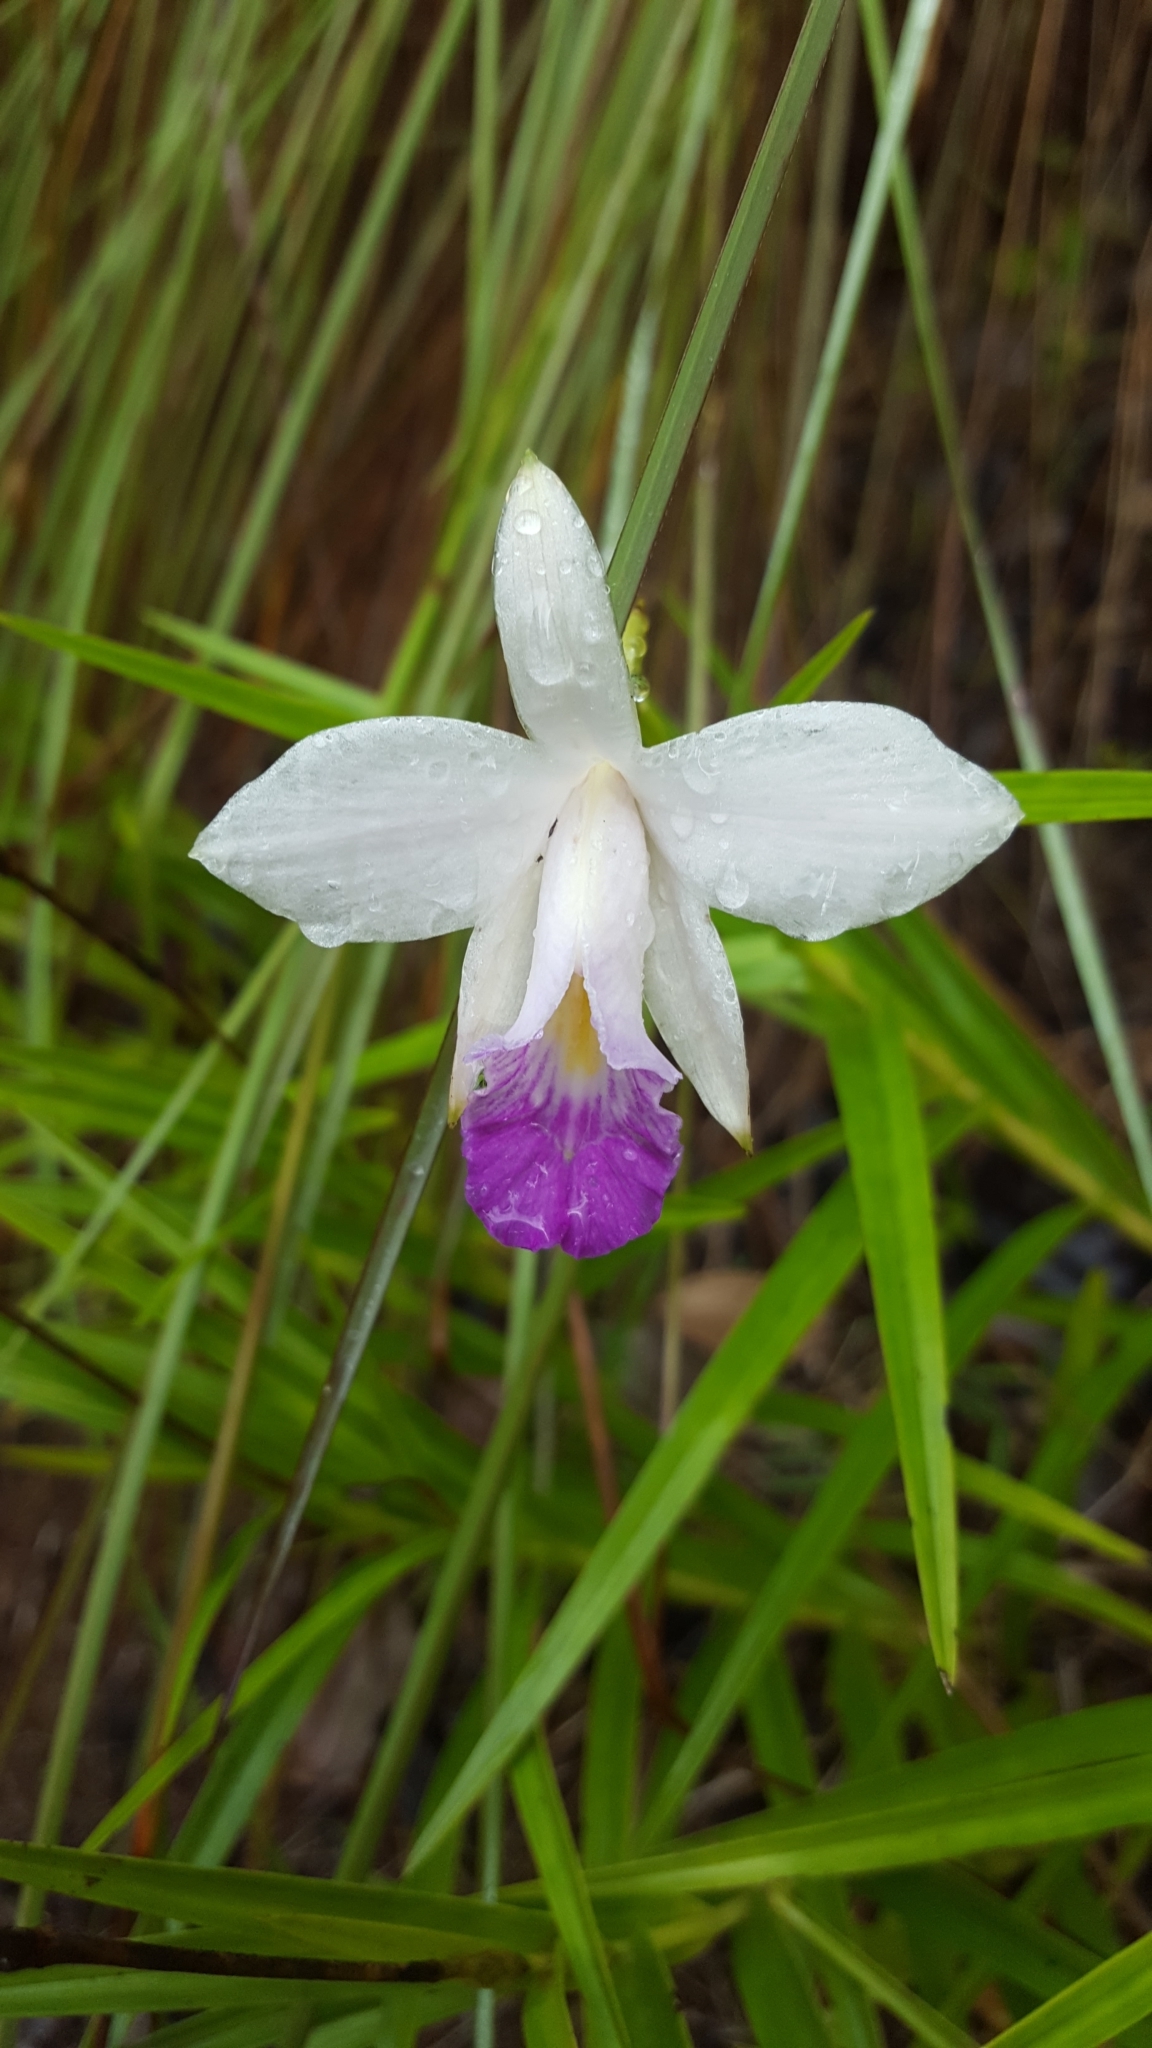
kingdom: Plantae
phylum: Tracheophyta
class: Liliopsida
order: Asparagales
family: Orchidaceae
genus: Arundina
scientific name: Arundina graminifolia
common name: Bamboo orchid
